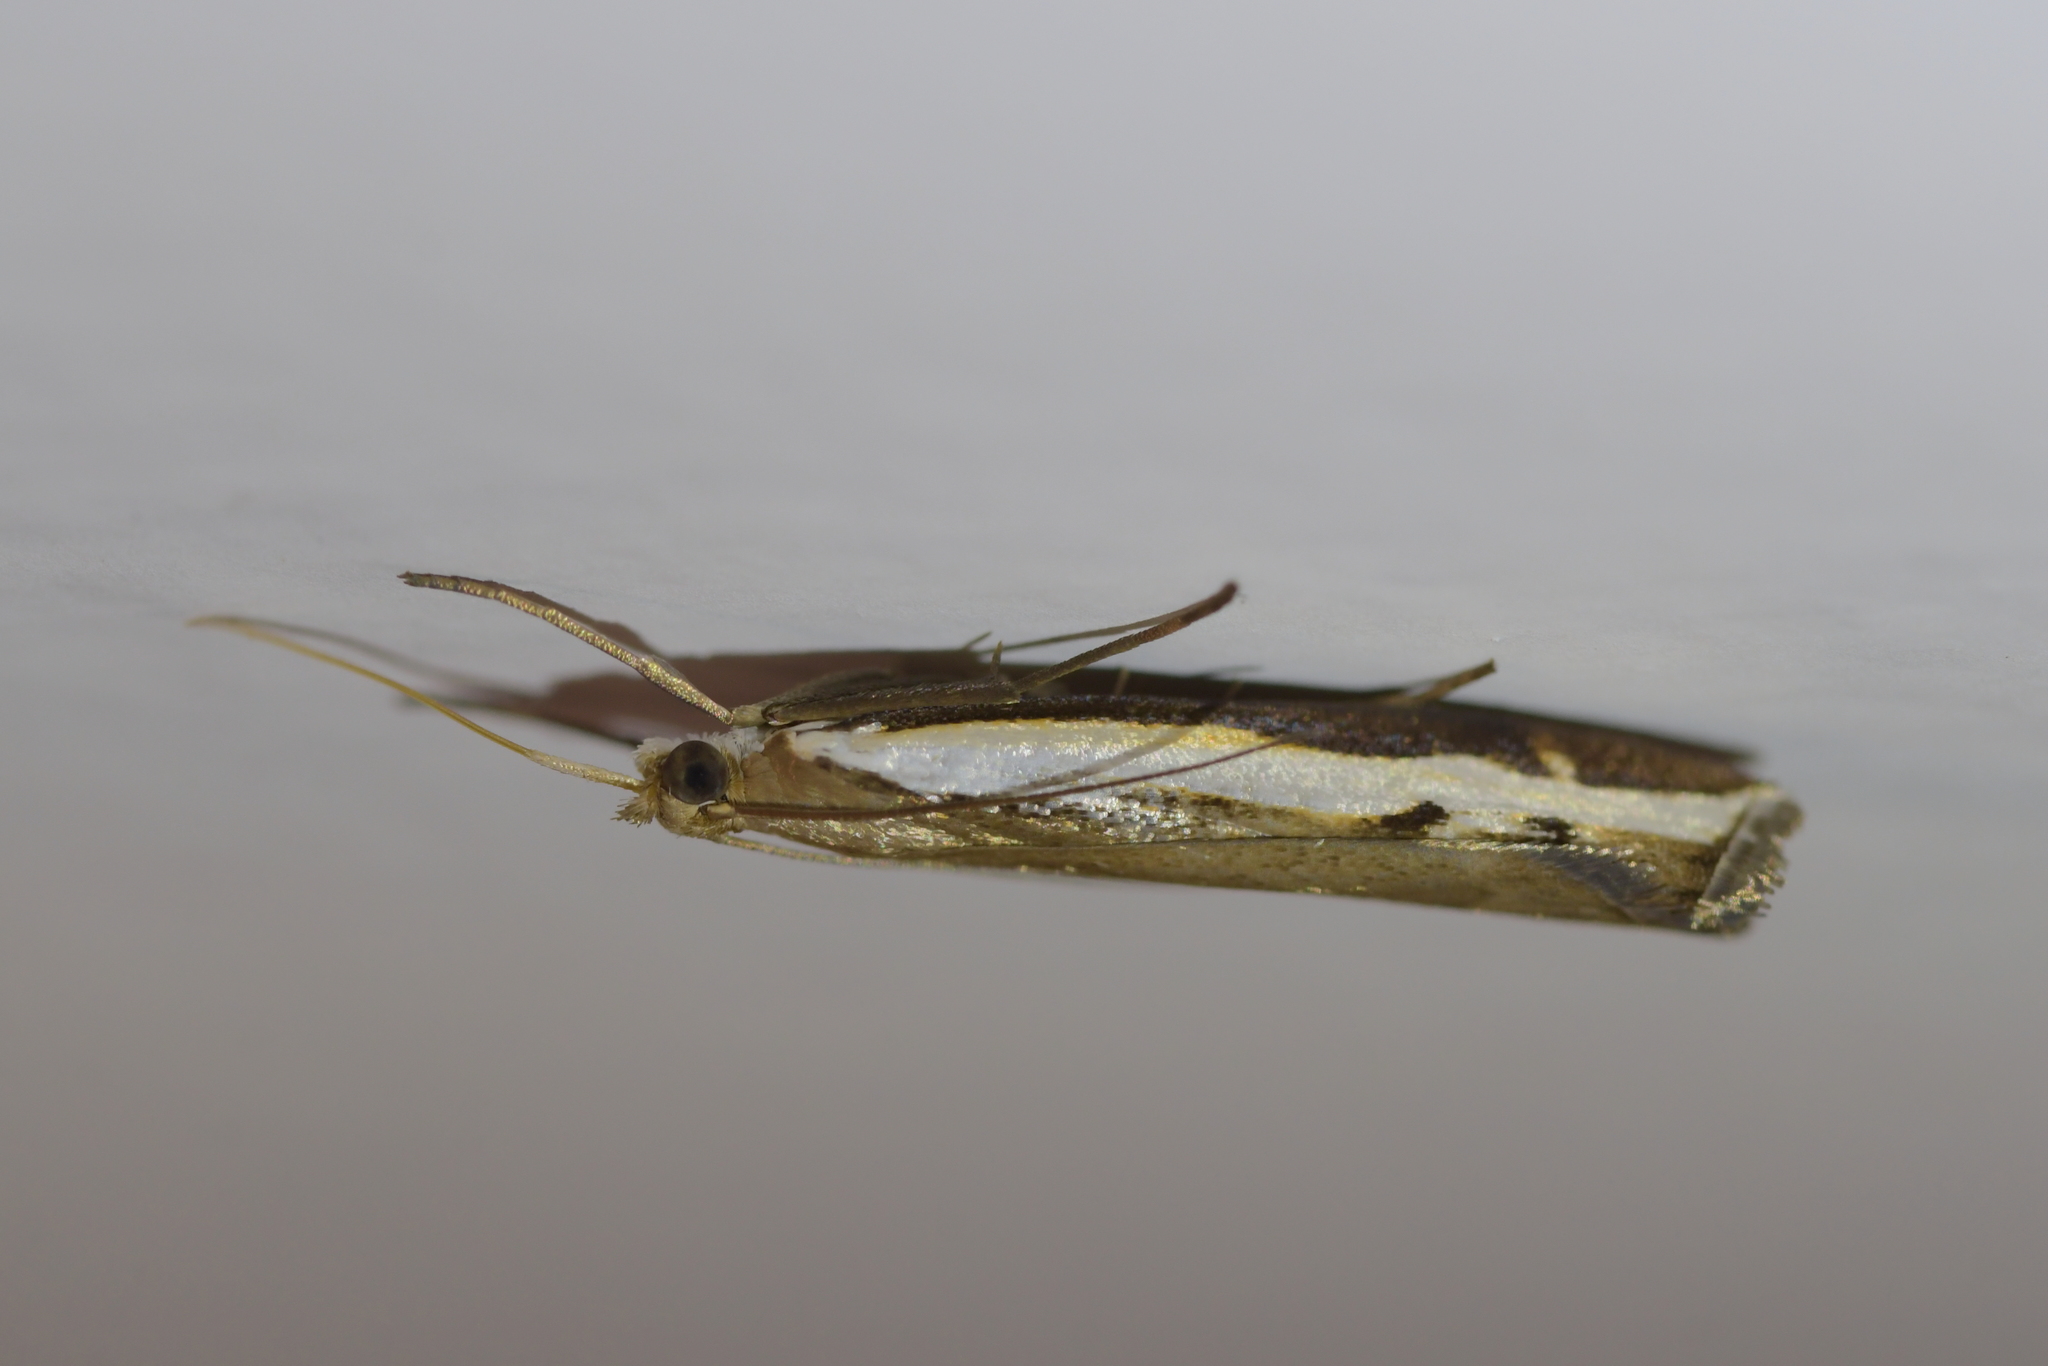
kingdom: Animalia
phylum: Arthropoda
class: Insecta
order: Lepidoptera
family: Crambidae
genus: Orocrambus
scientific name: Orocrambus flexuosellus
